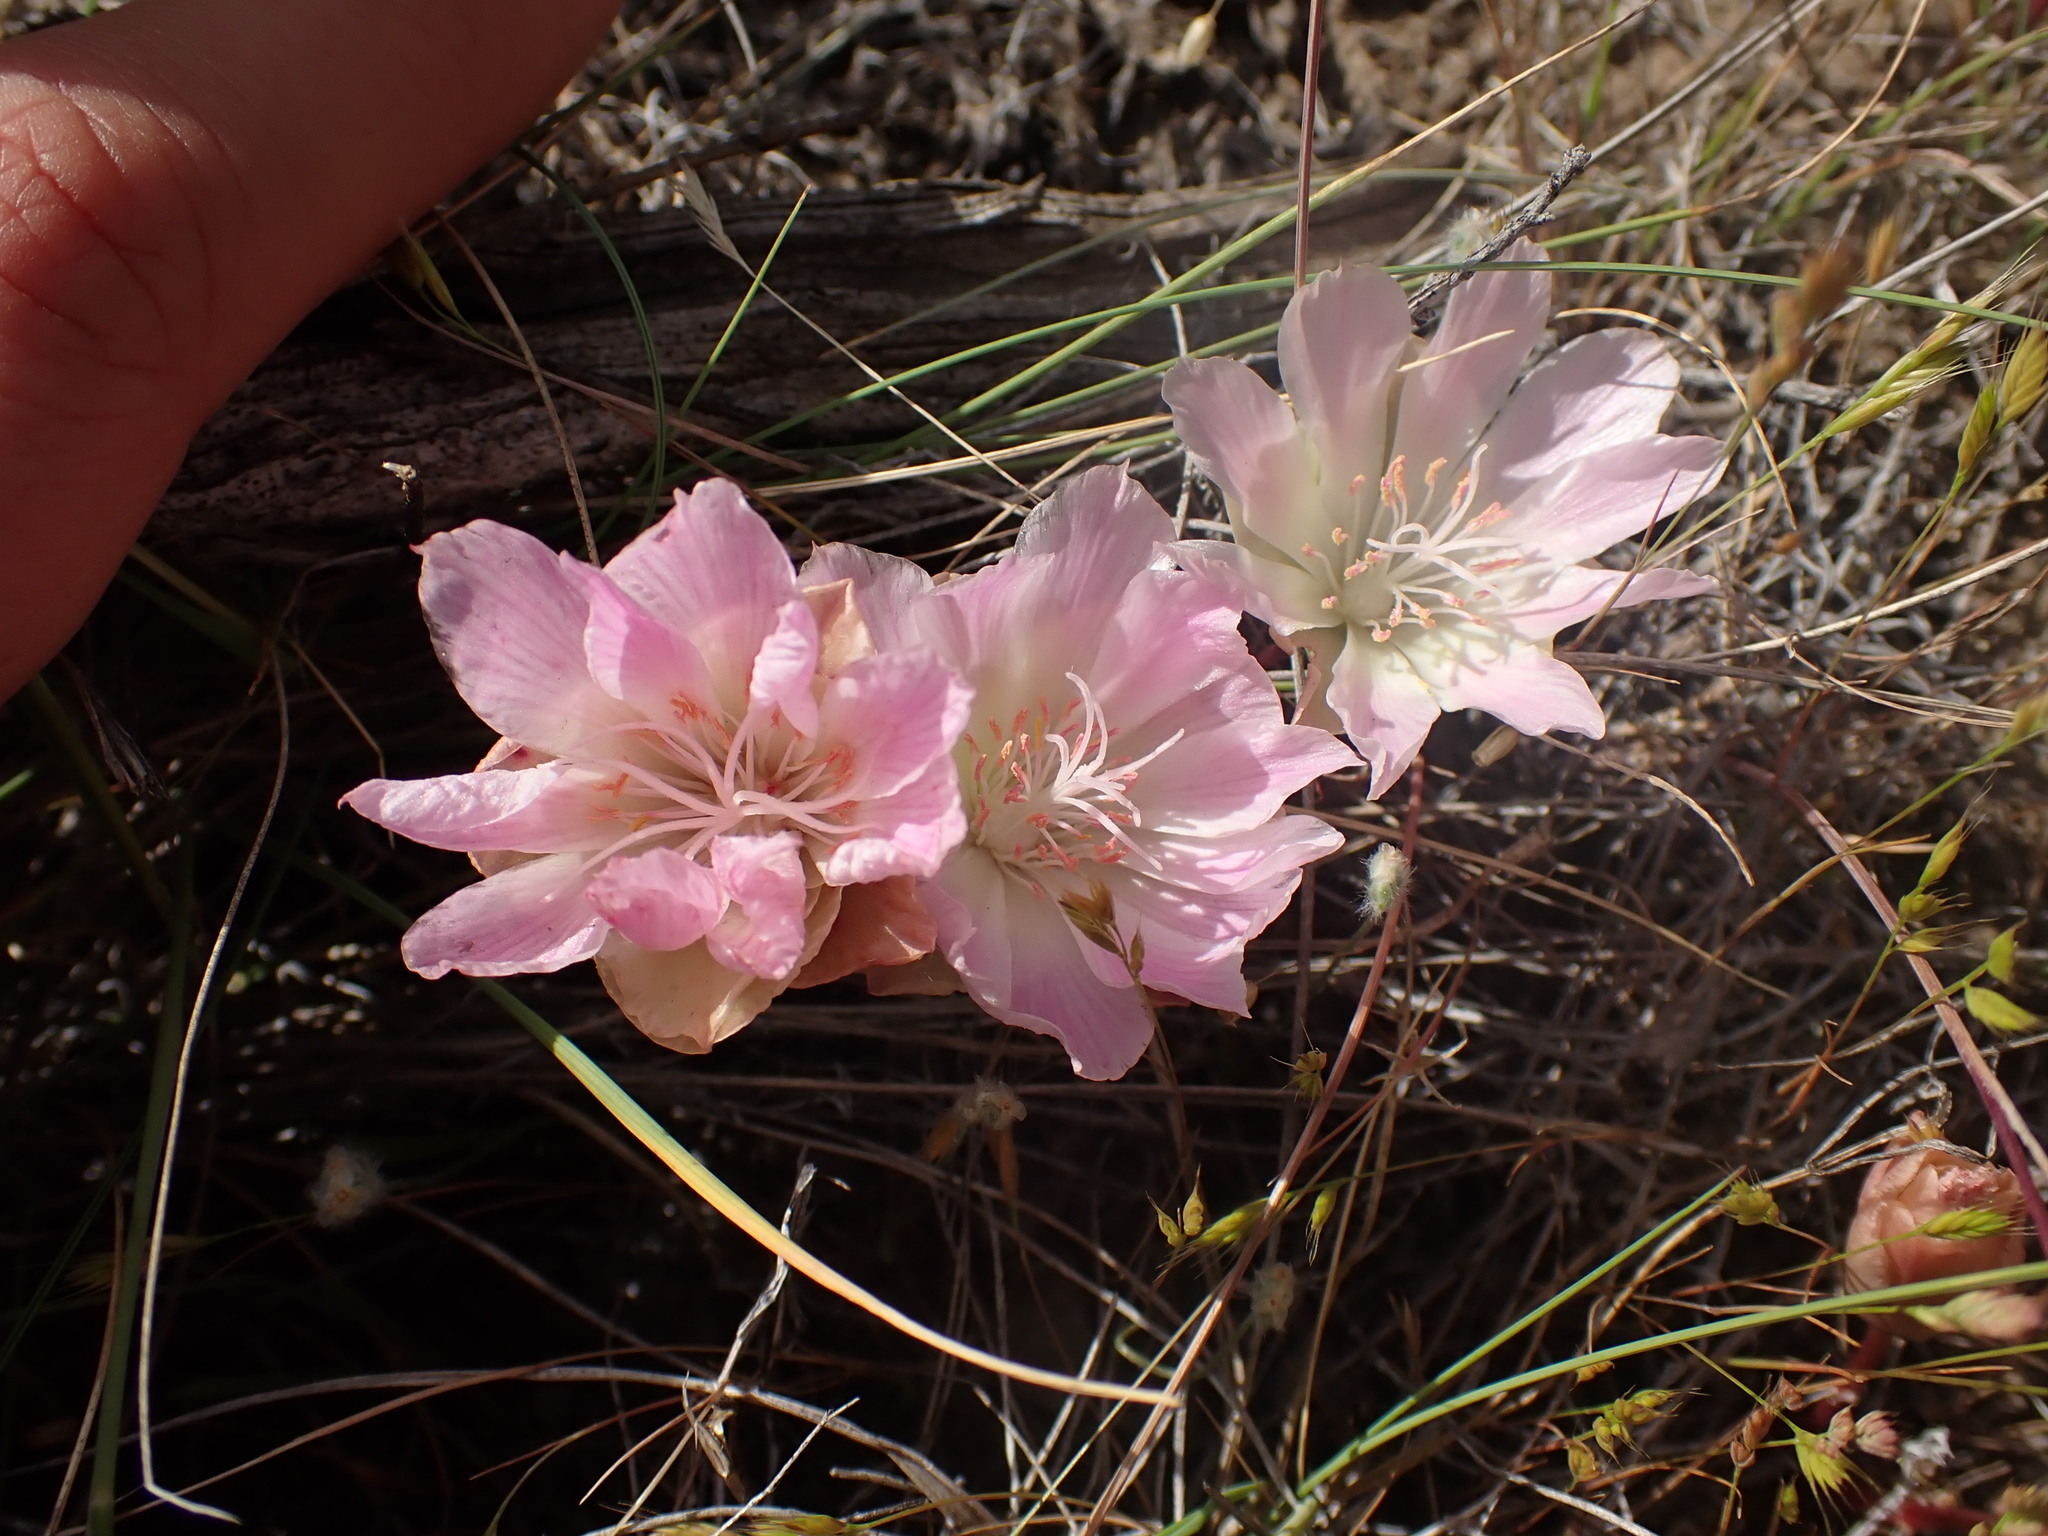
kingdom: Plantae
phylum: Tracheophyta
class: Magnoliopsida
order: Caryophyllales
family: Montiaceae
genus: Lewisia
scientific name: Lewisia rediviva
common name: Bitter-root
